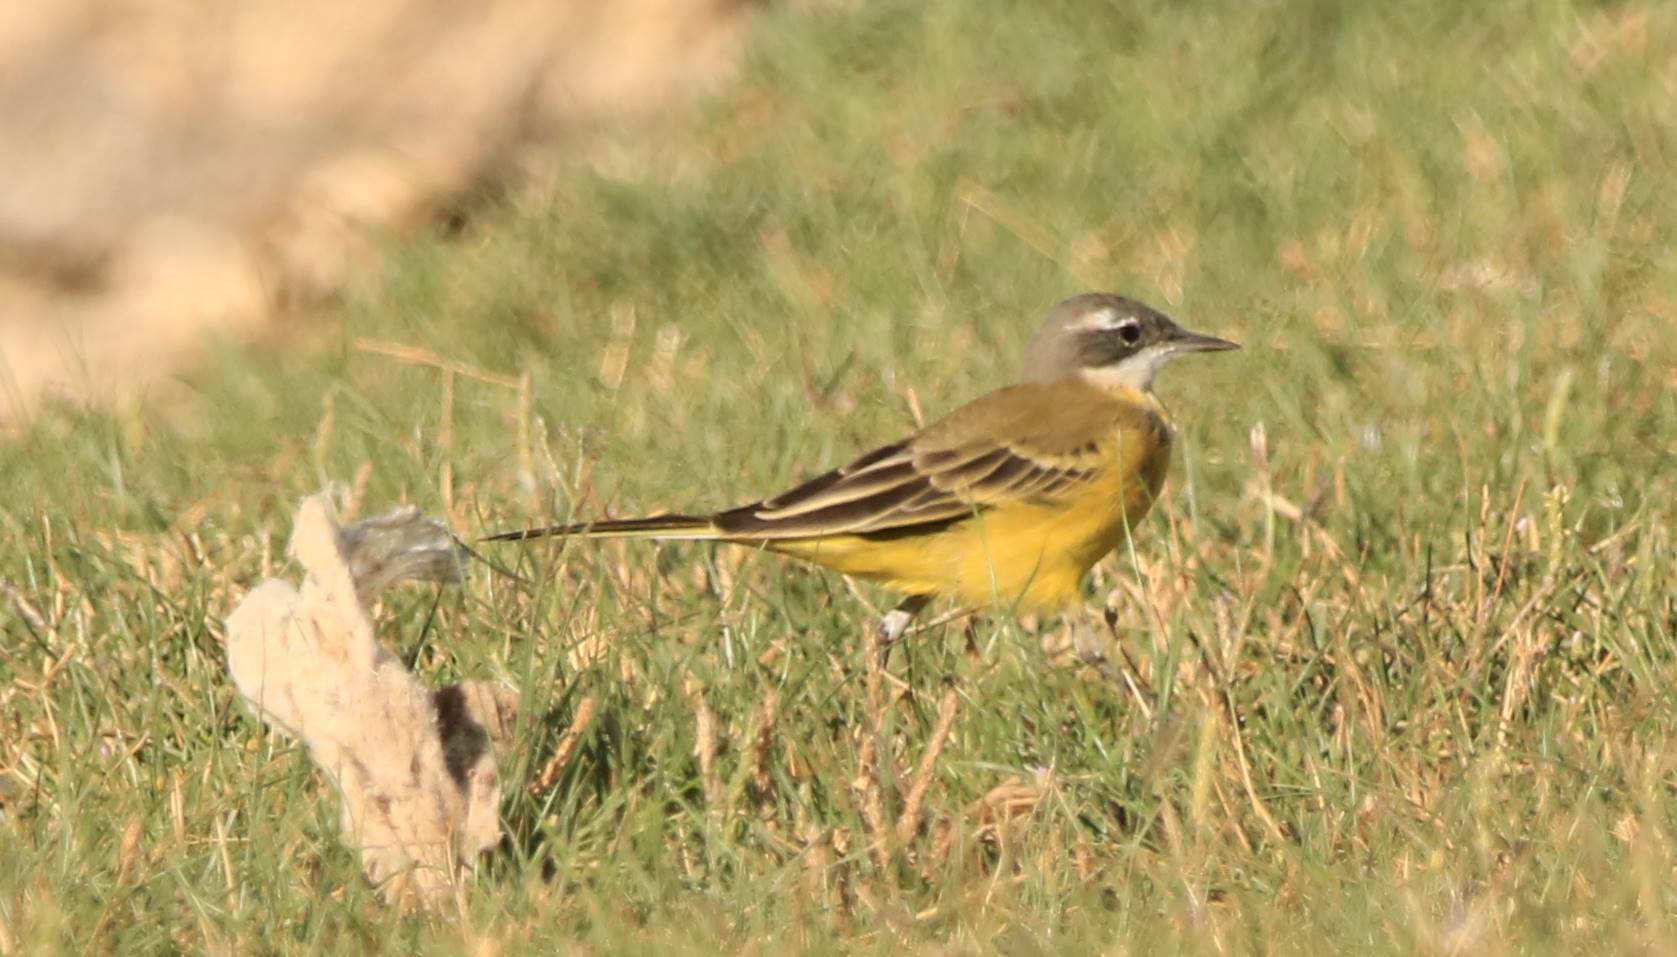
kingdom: Animalia
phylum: Chordata
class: Aves
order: Passeriformes
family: Motacillidae
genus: Motacilla
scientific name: Motacilla flava
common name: Western yellow wagtail
